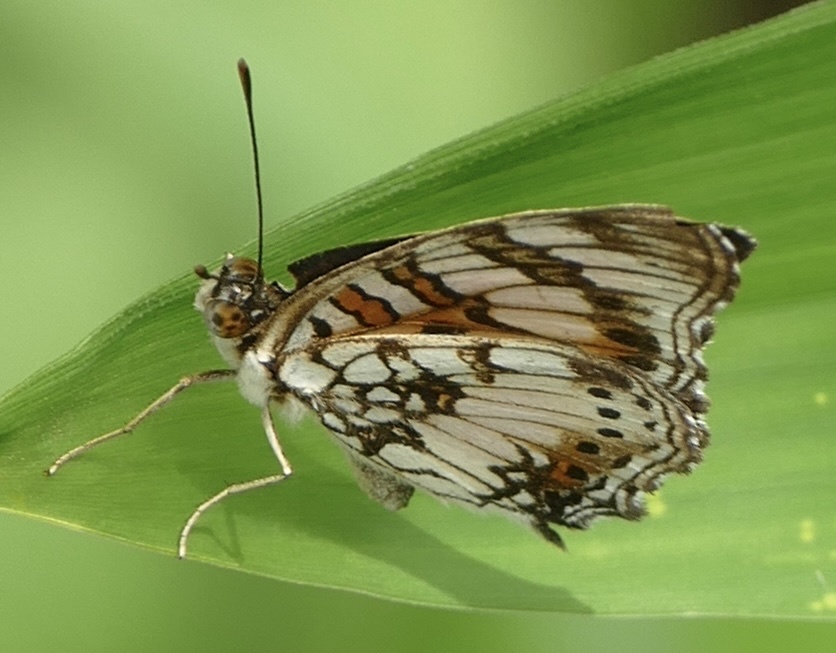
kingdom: Animalia
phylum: Arthropoda
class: Insecta
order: Lepidoptera
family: Nymphalidae
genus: Junonia
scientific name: Junonia sophia
